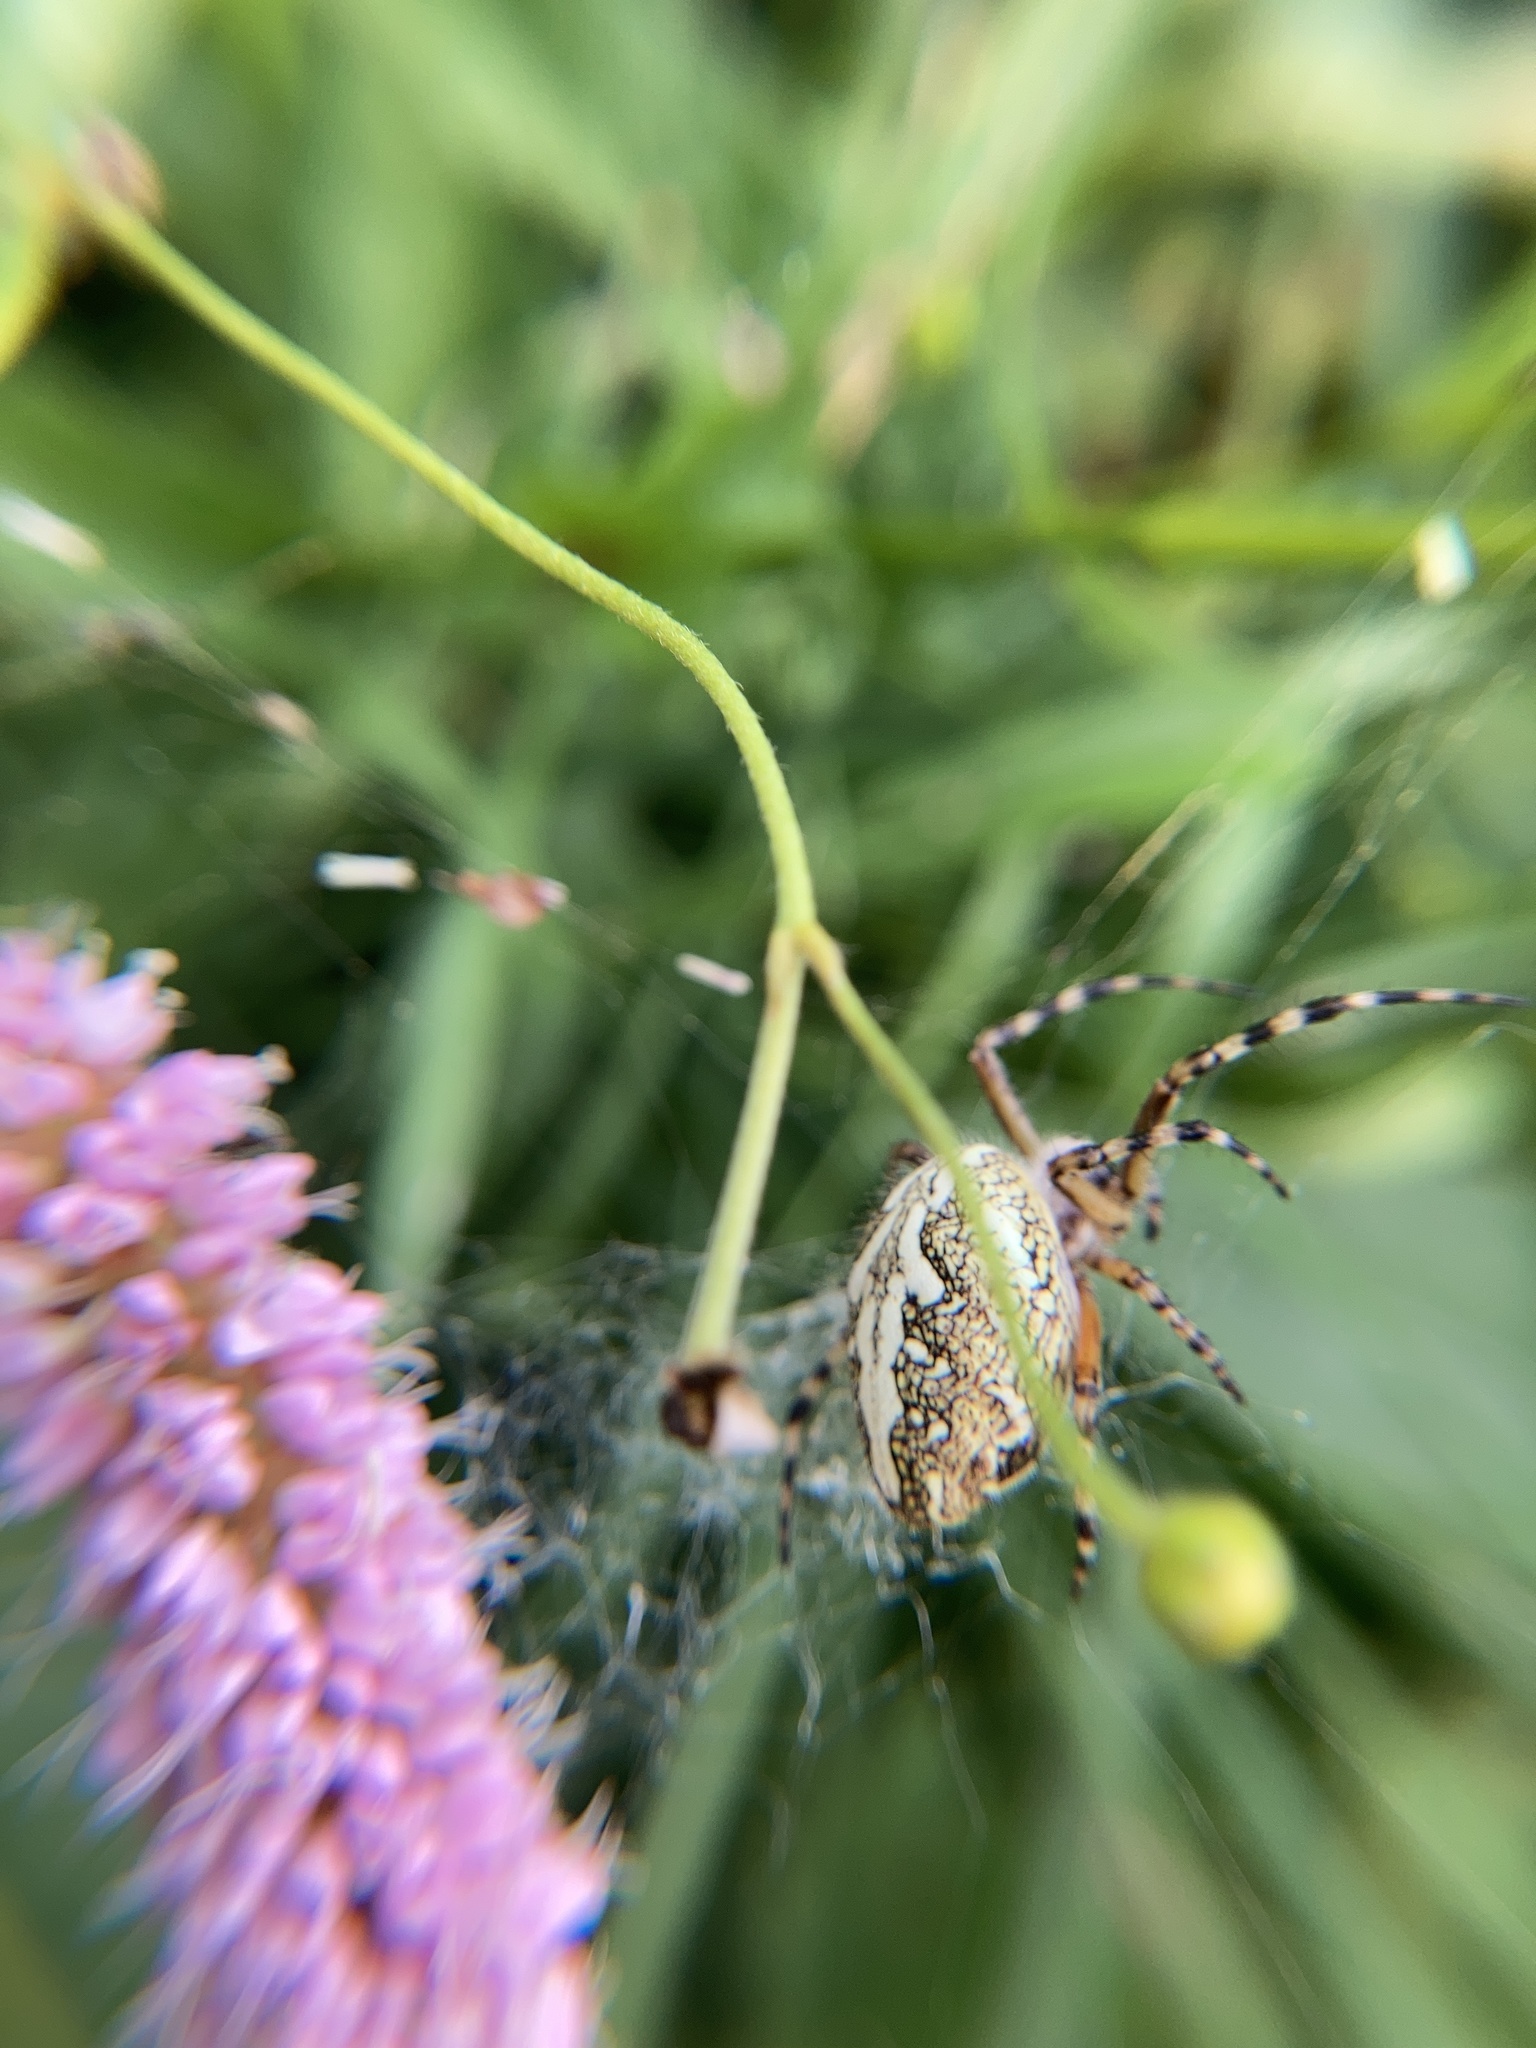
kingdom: Animalia
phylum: Arthropoda
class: Arachnida
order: Araneae
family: Araneidae
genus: Aculepeira
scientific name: Aculepeira ceropegia
